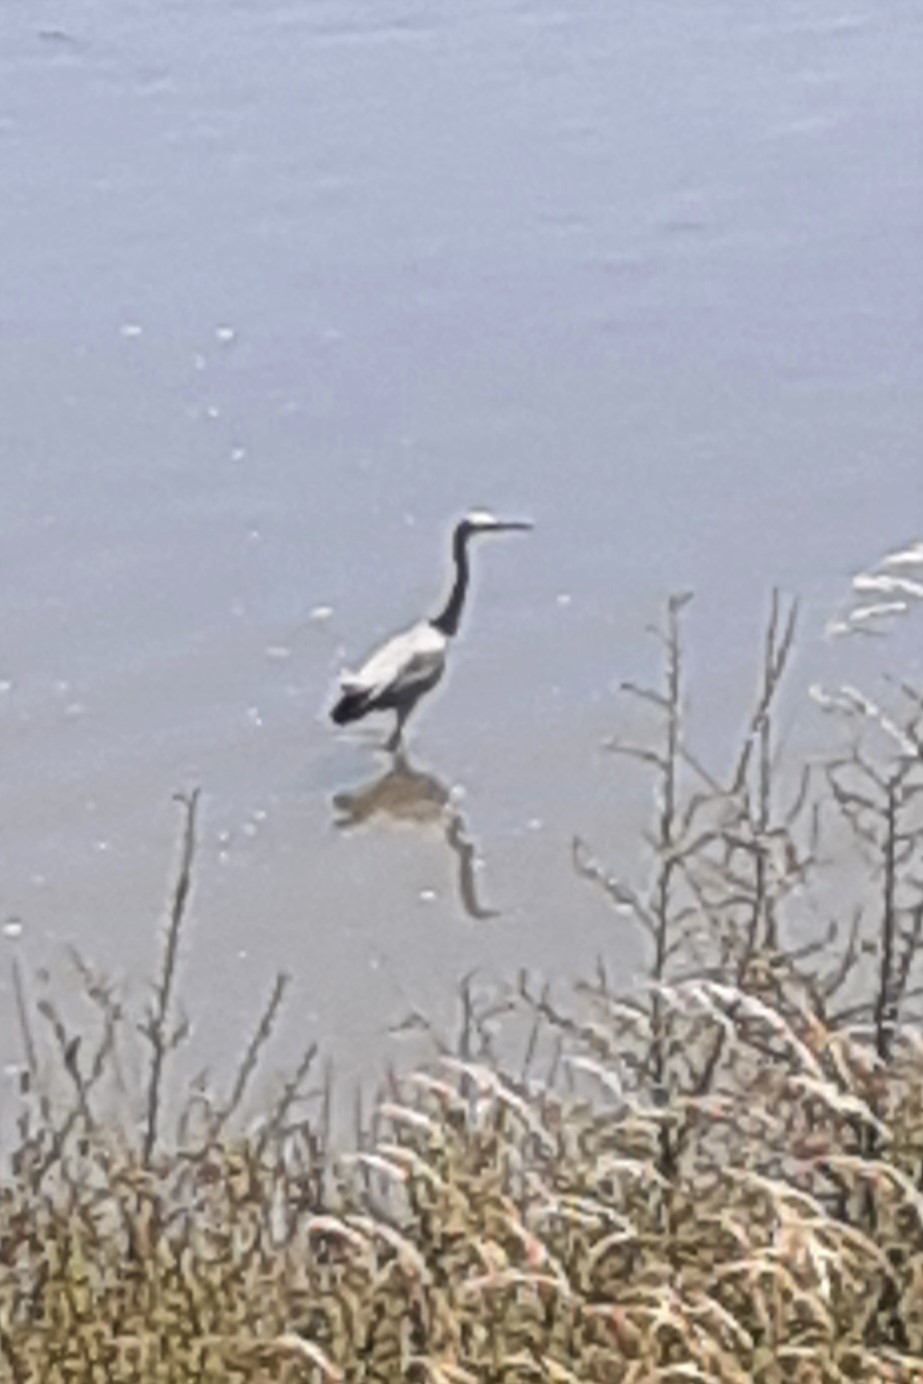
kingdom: Animalia
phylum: Chordata
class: Aves
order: Pelecaniformes
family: Ardeidae
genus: Egretta
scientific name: Egretta novaehollandiae
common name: White-faced heron
